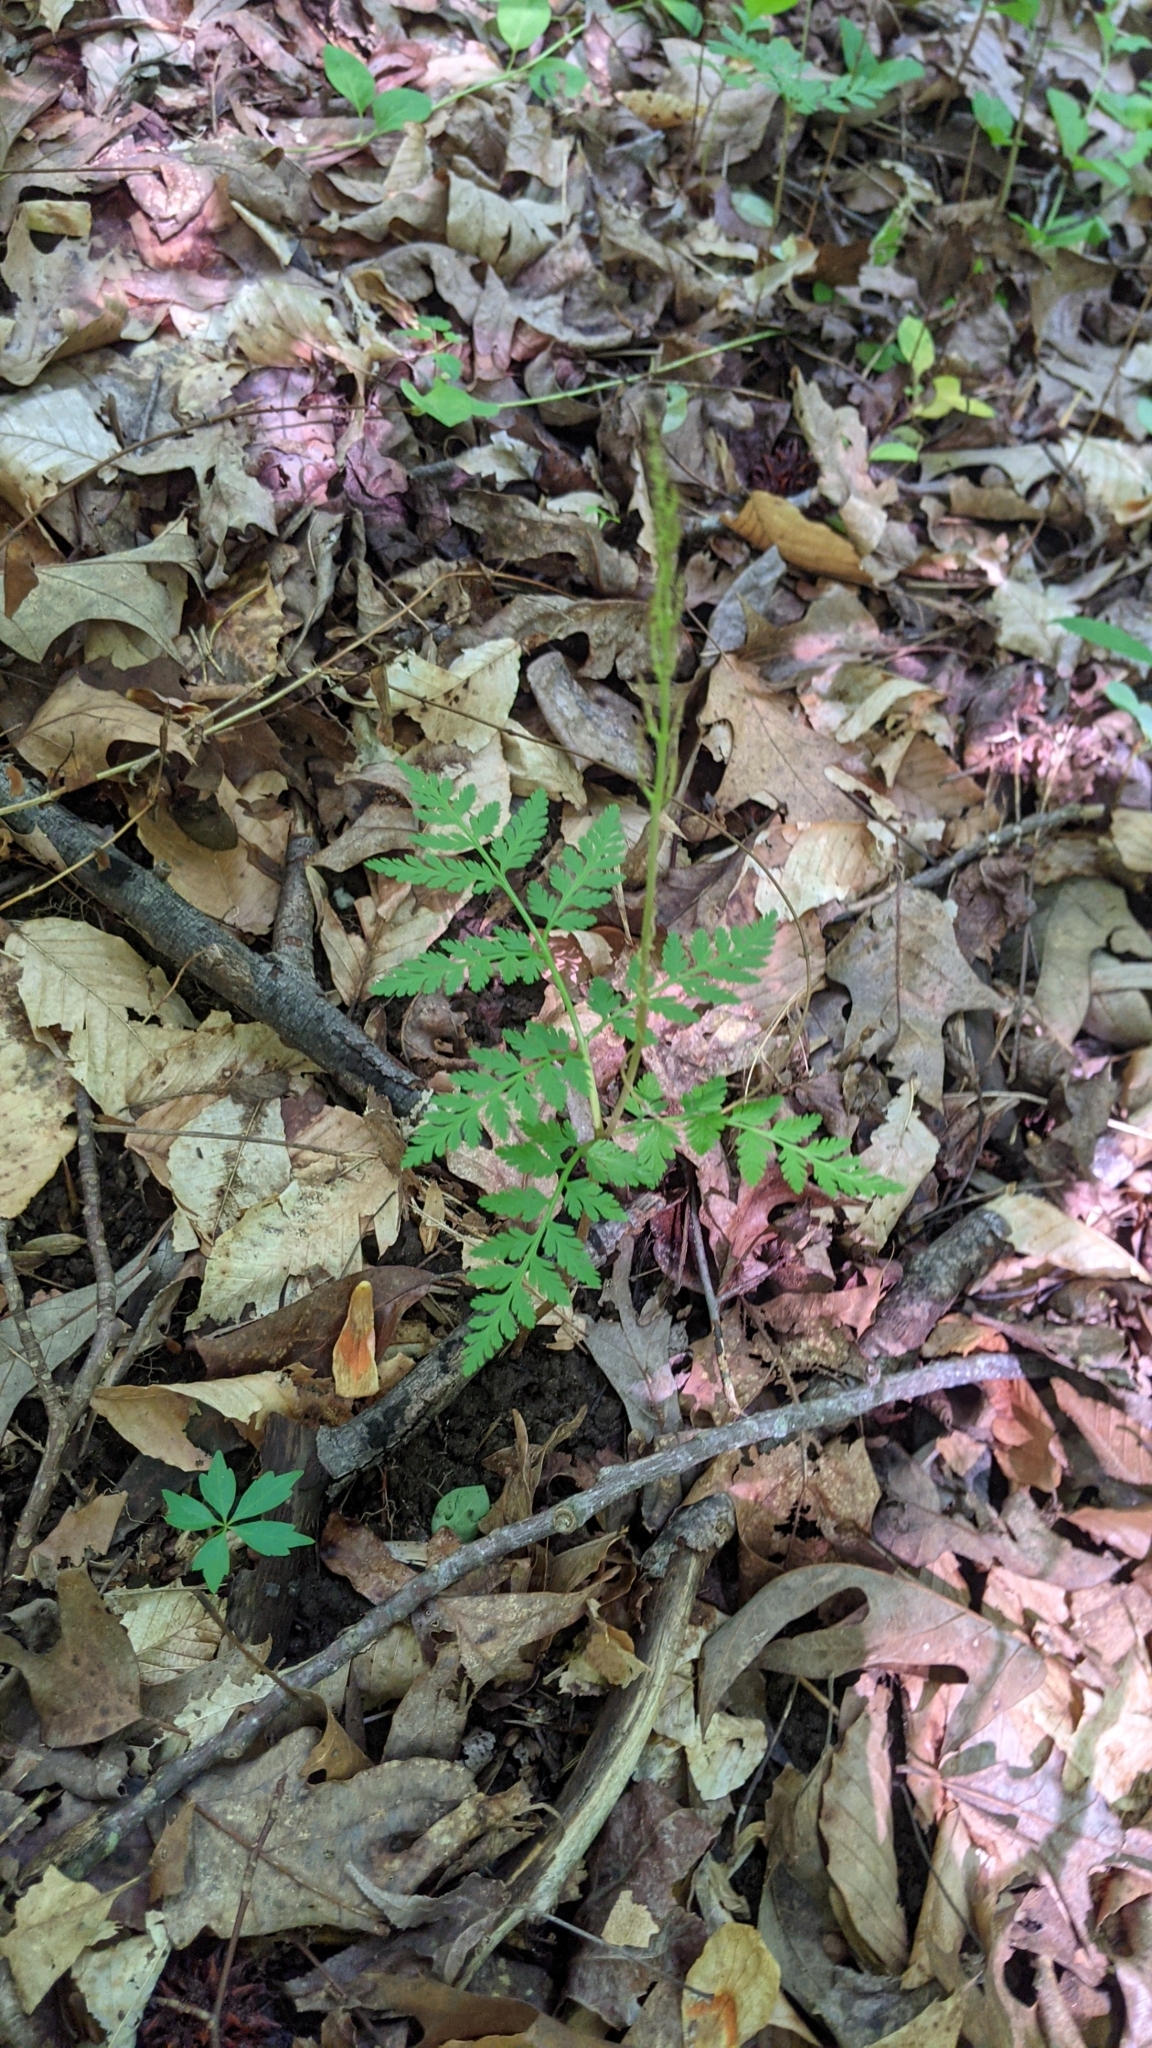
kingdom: Plantae
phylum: Tracheophyta
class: Polypodiopsida
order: Ophioglossales
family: Ophioglossaceae
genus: Botrypus
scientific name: Botrypus virginianus
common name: Common grapefern
